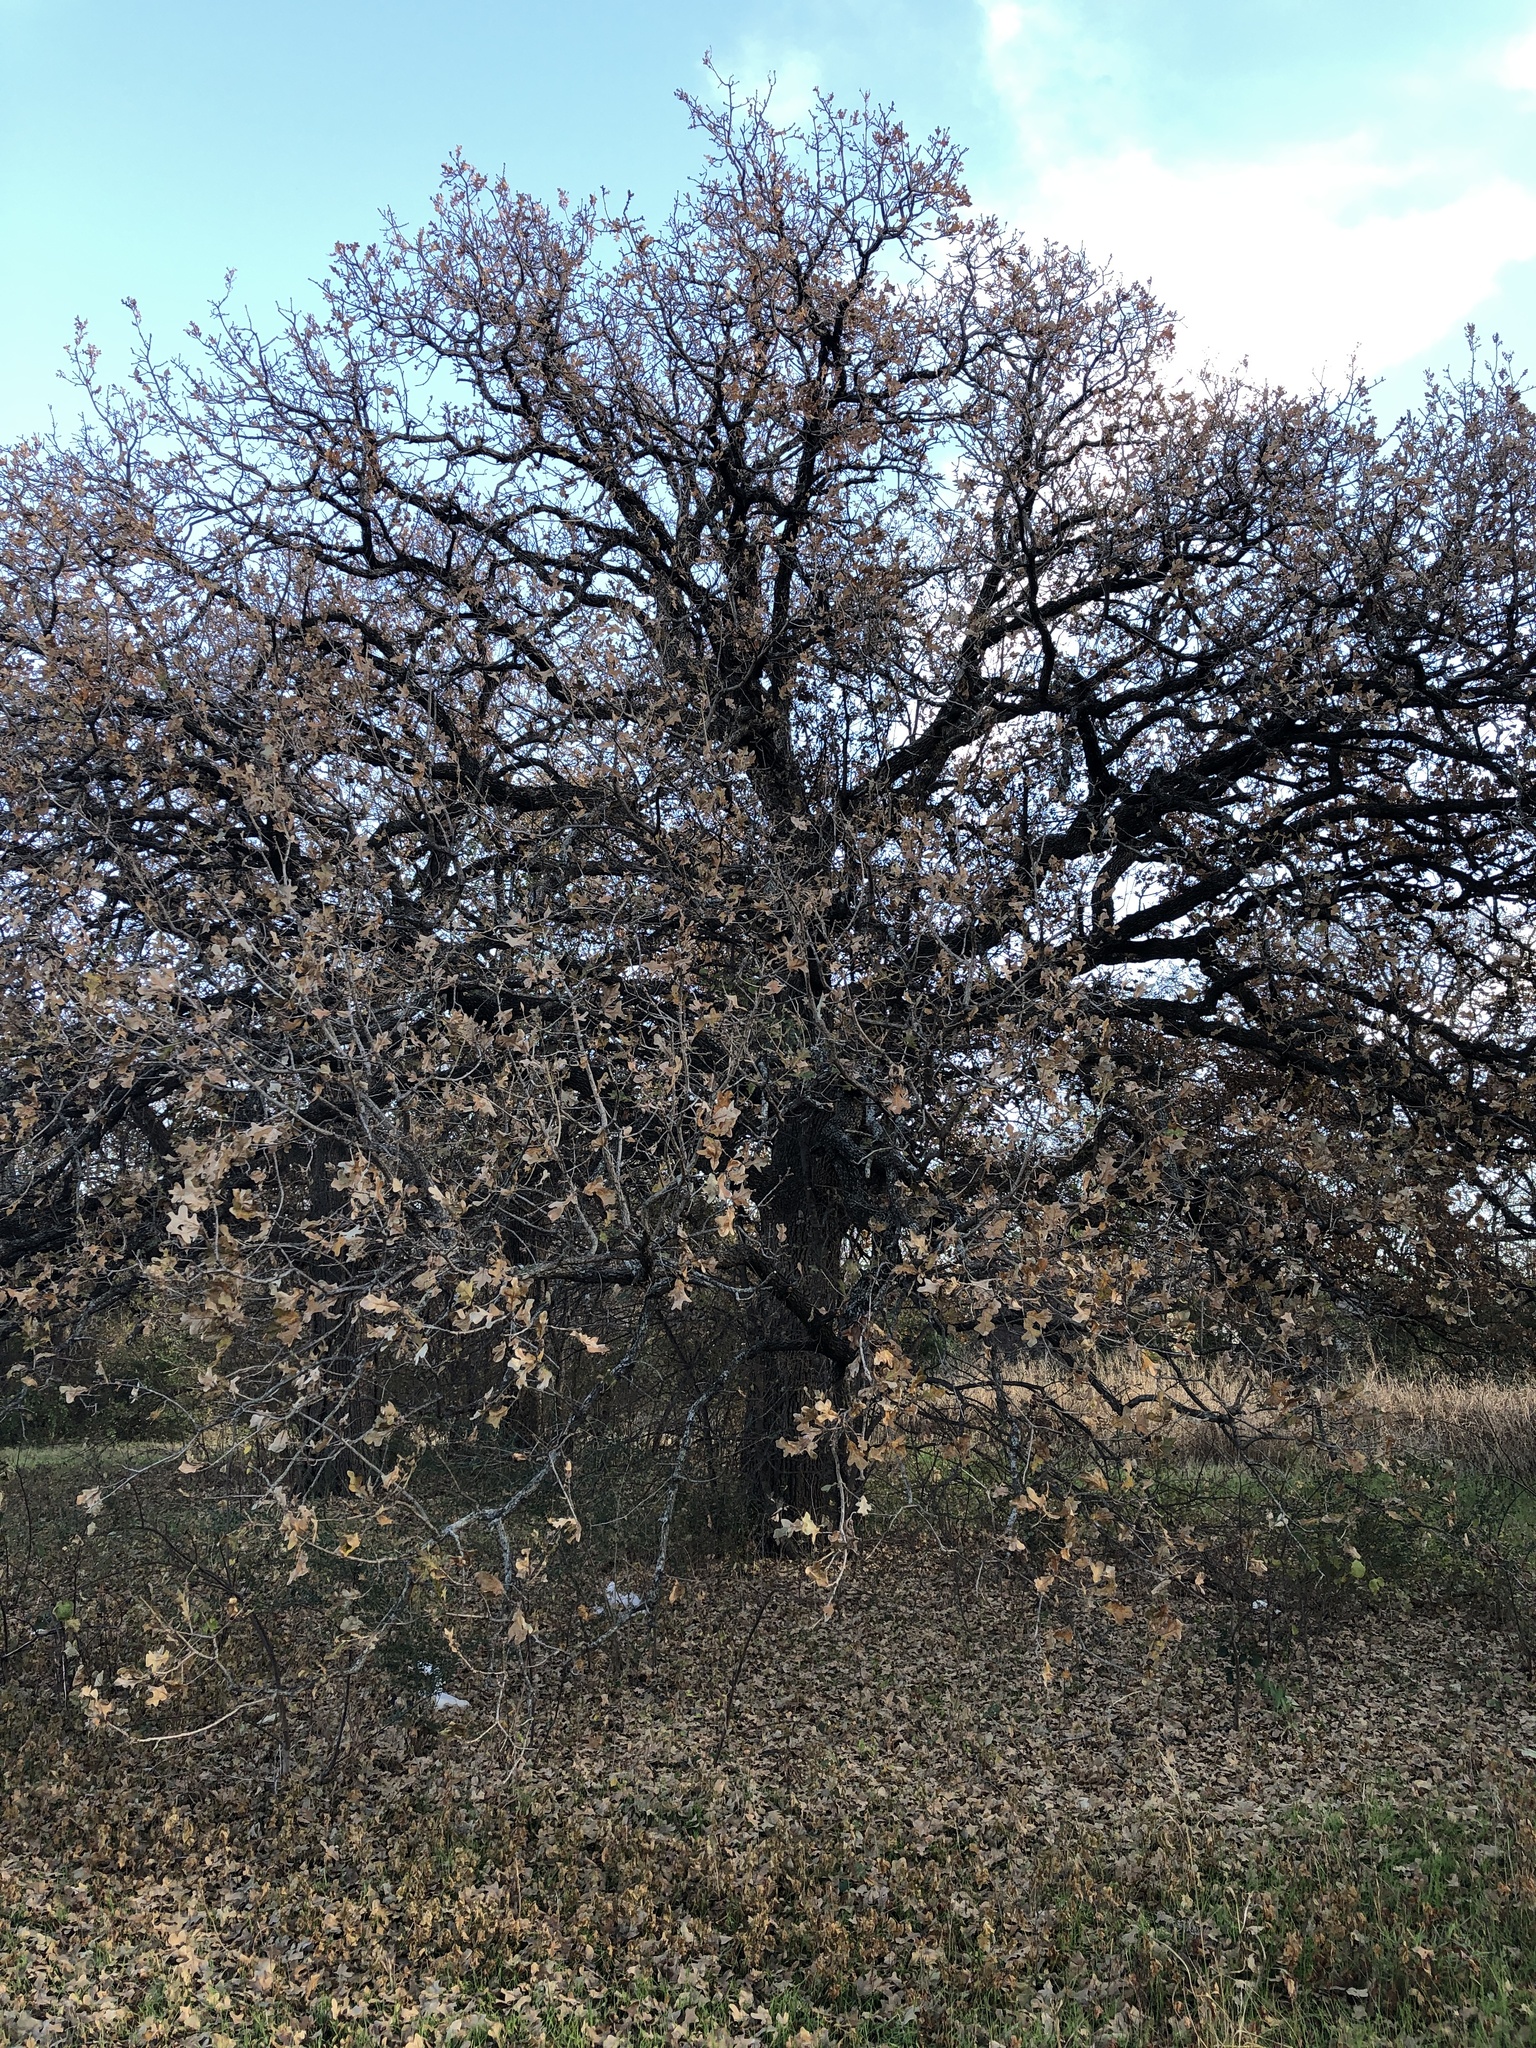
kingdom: Plantae
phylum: Tracheophyta
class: Magnoliopsida
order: Fagales
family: Fagaceae
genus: Quercus
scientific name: Quercus stellata
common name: Post oak
